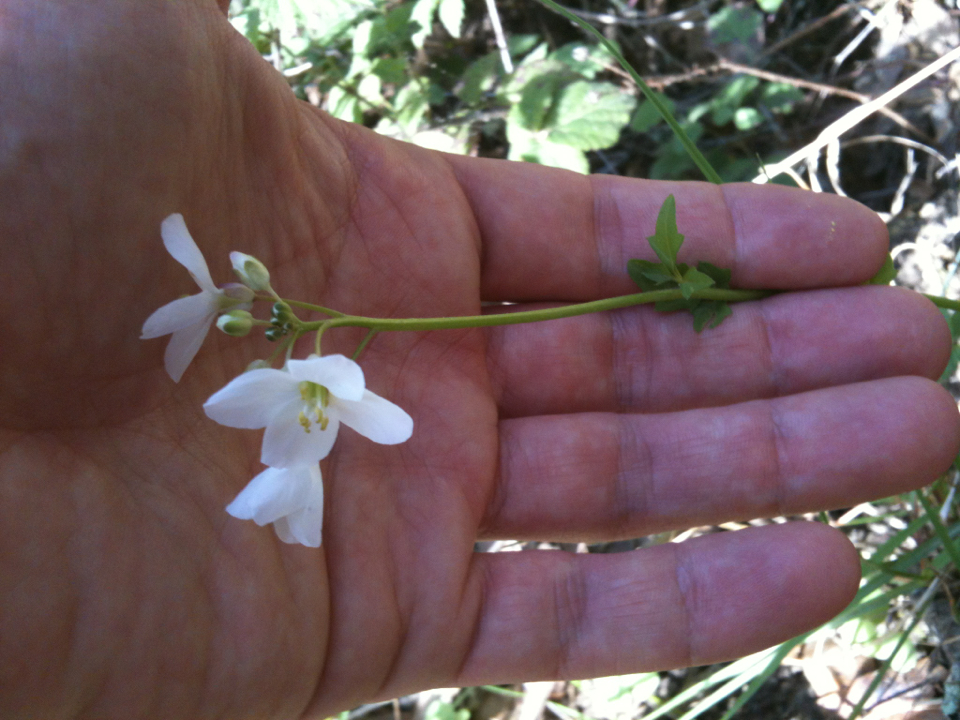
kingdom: Plantae
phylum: Tracheophyta
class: Magnoliopsida
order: Brassicales
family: Brassicaceae
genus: Cardamine
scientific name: Cardamine californica
